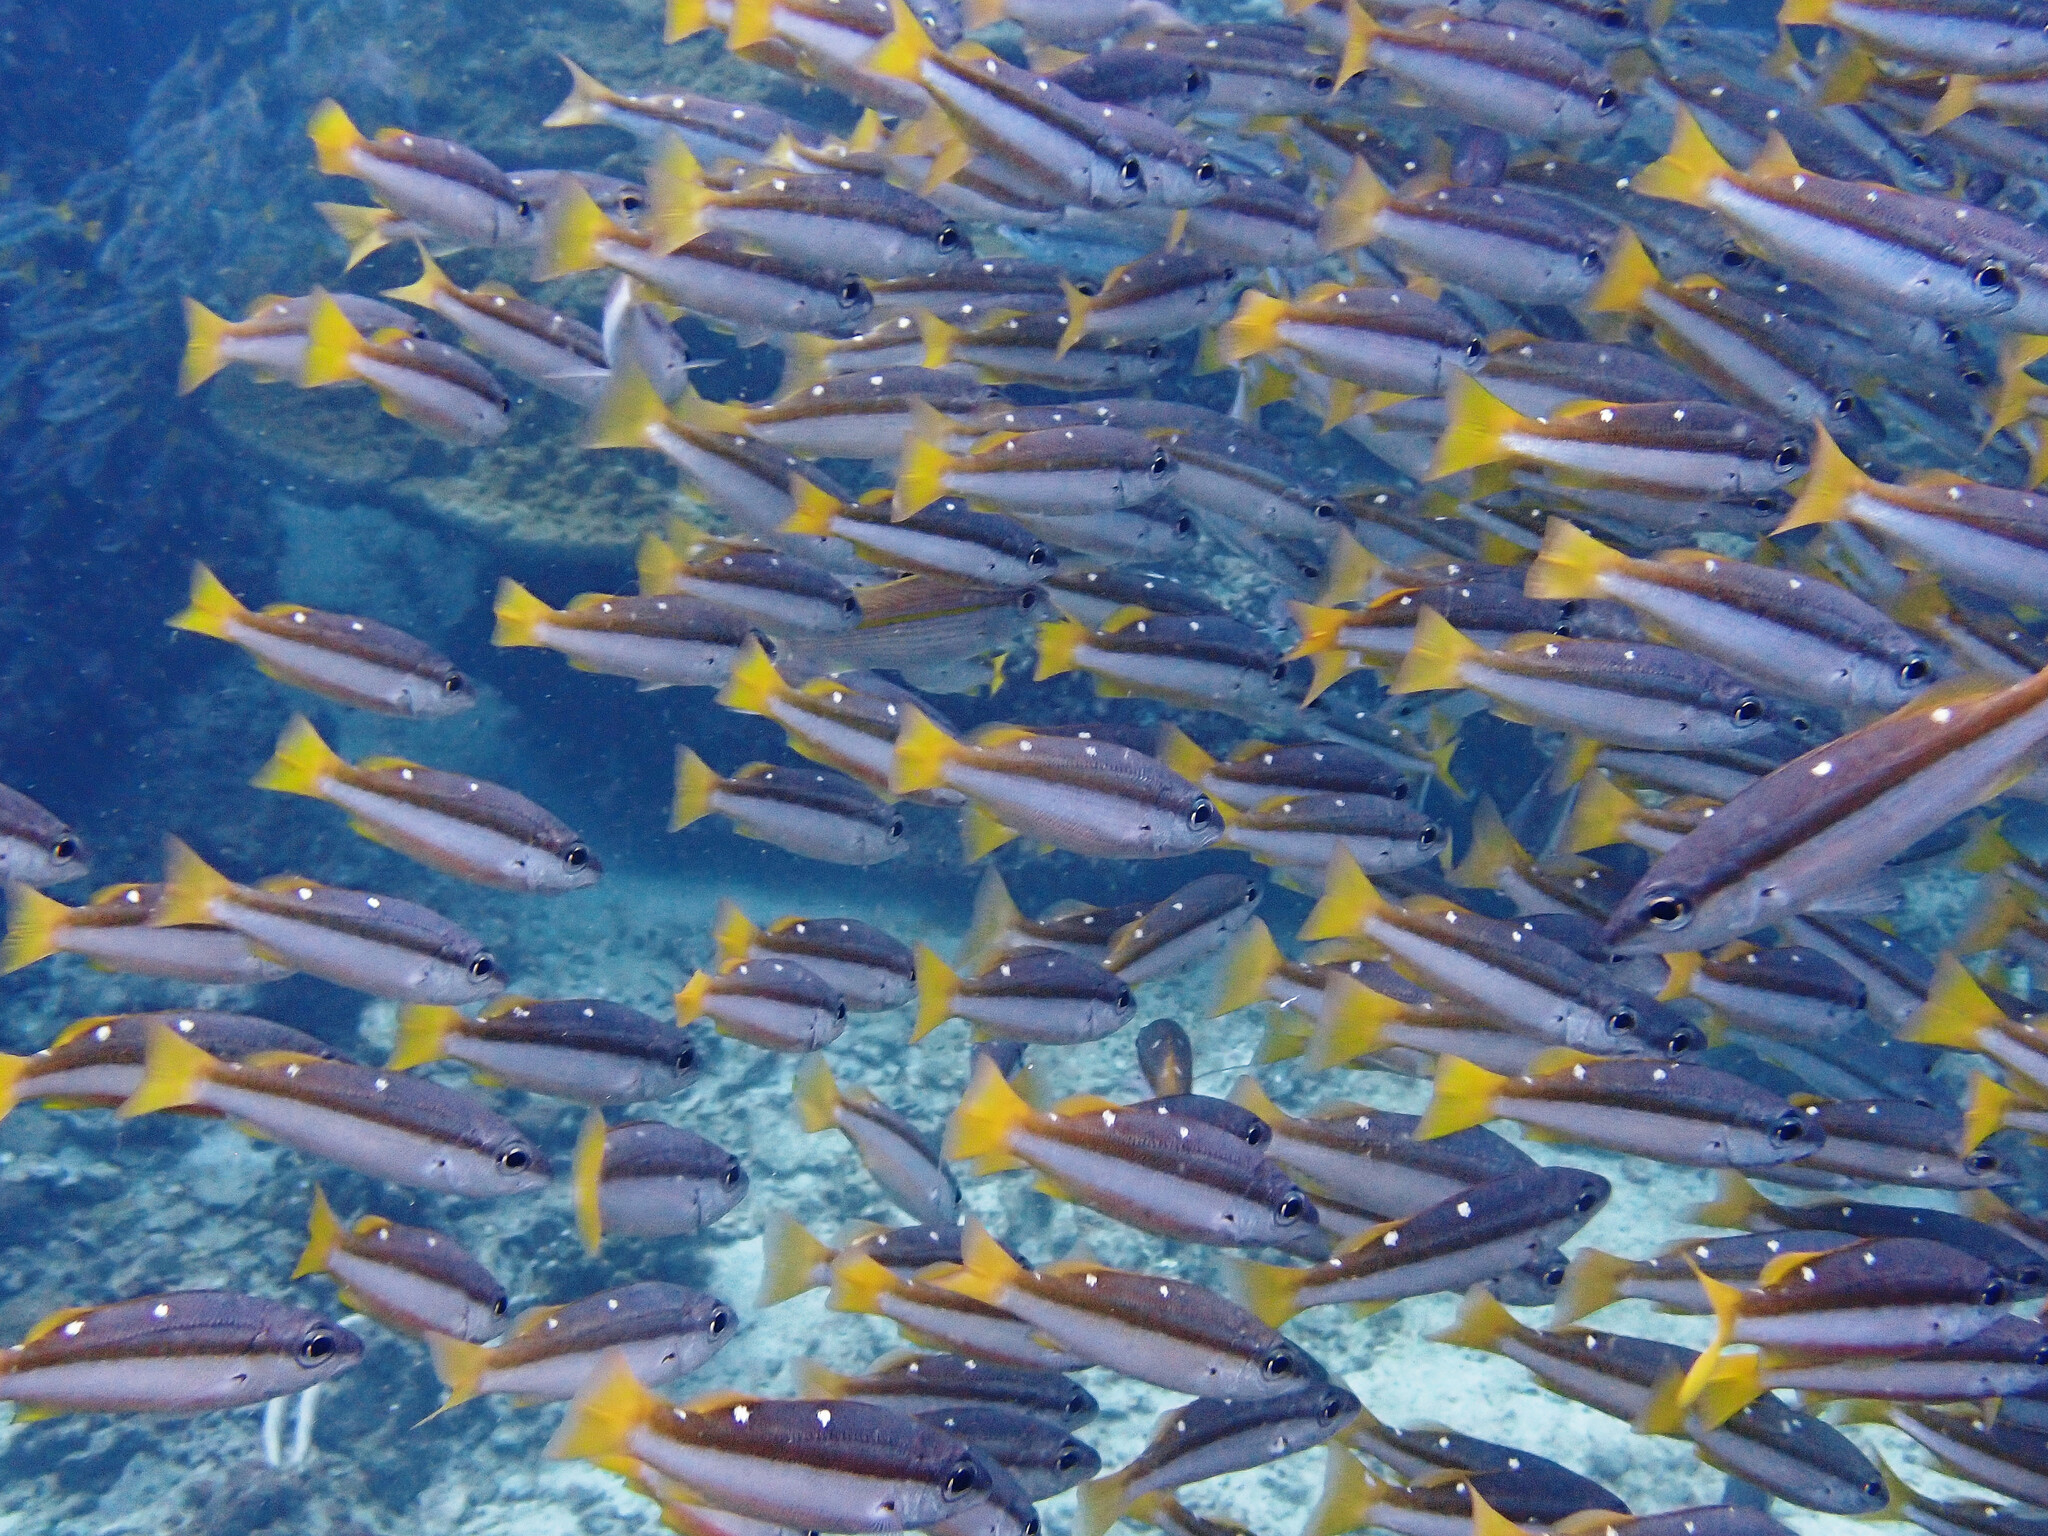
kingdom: Animalia
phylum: Chordata
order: Perciformes
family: Lutjanidae
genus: Lutjanus
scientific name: Lutjanus biguttatus
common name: Two-spot snapper
